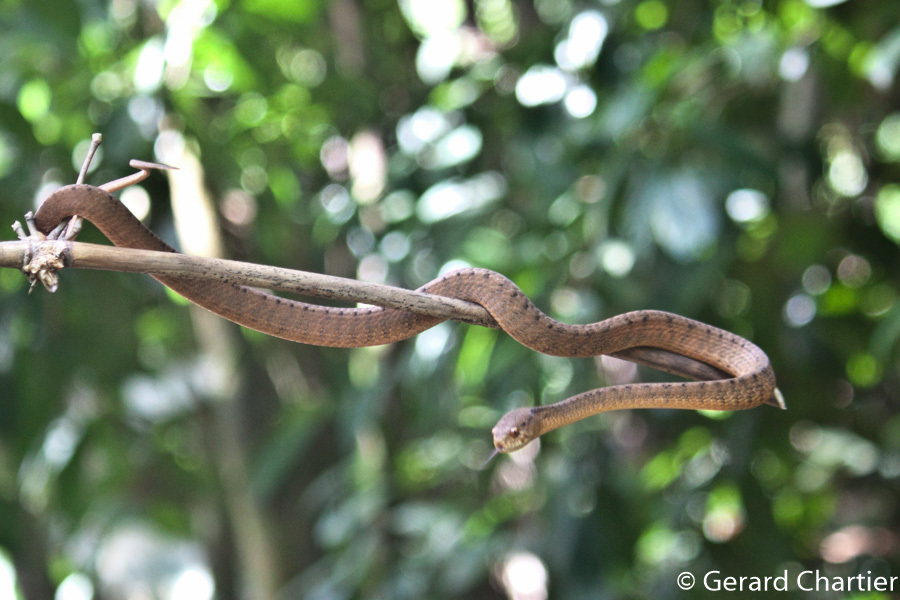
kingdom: Animalia
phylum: Chordata
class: Squamata
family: Pareidae
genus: Pareas
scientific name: Pareas carinatus
